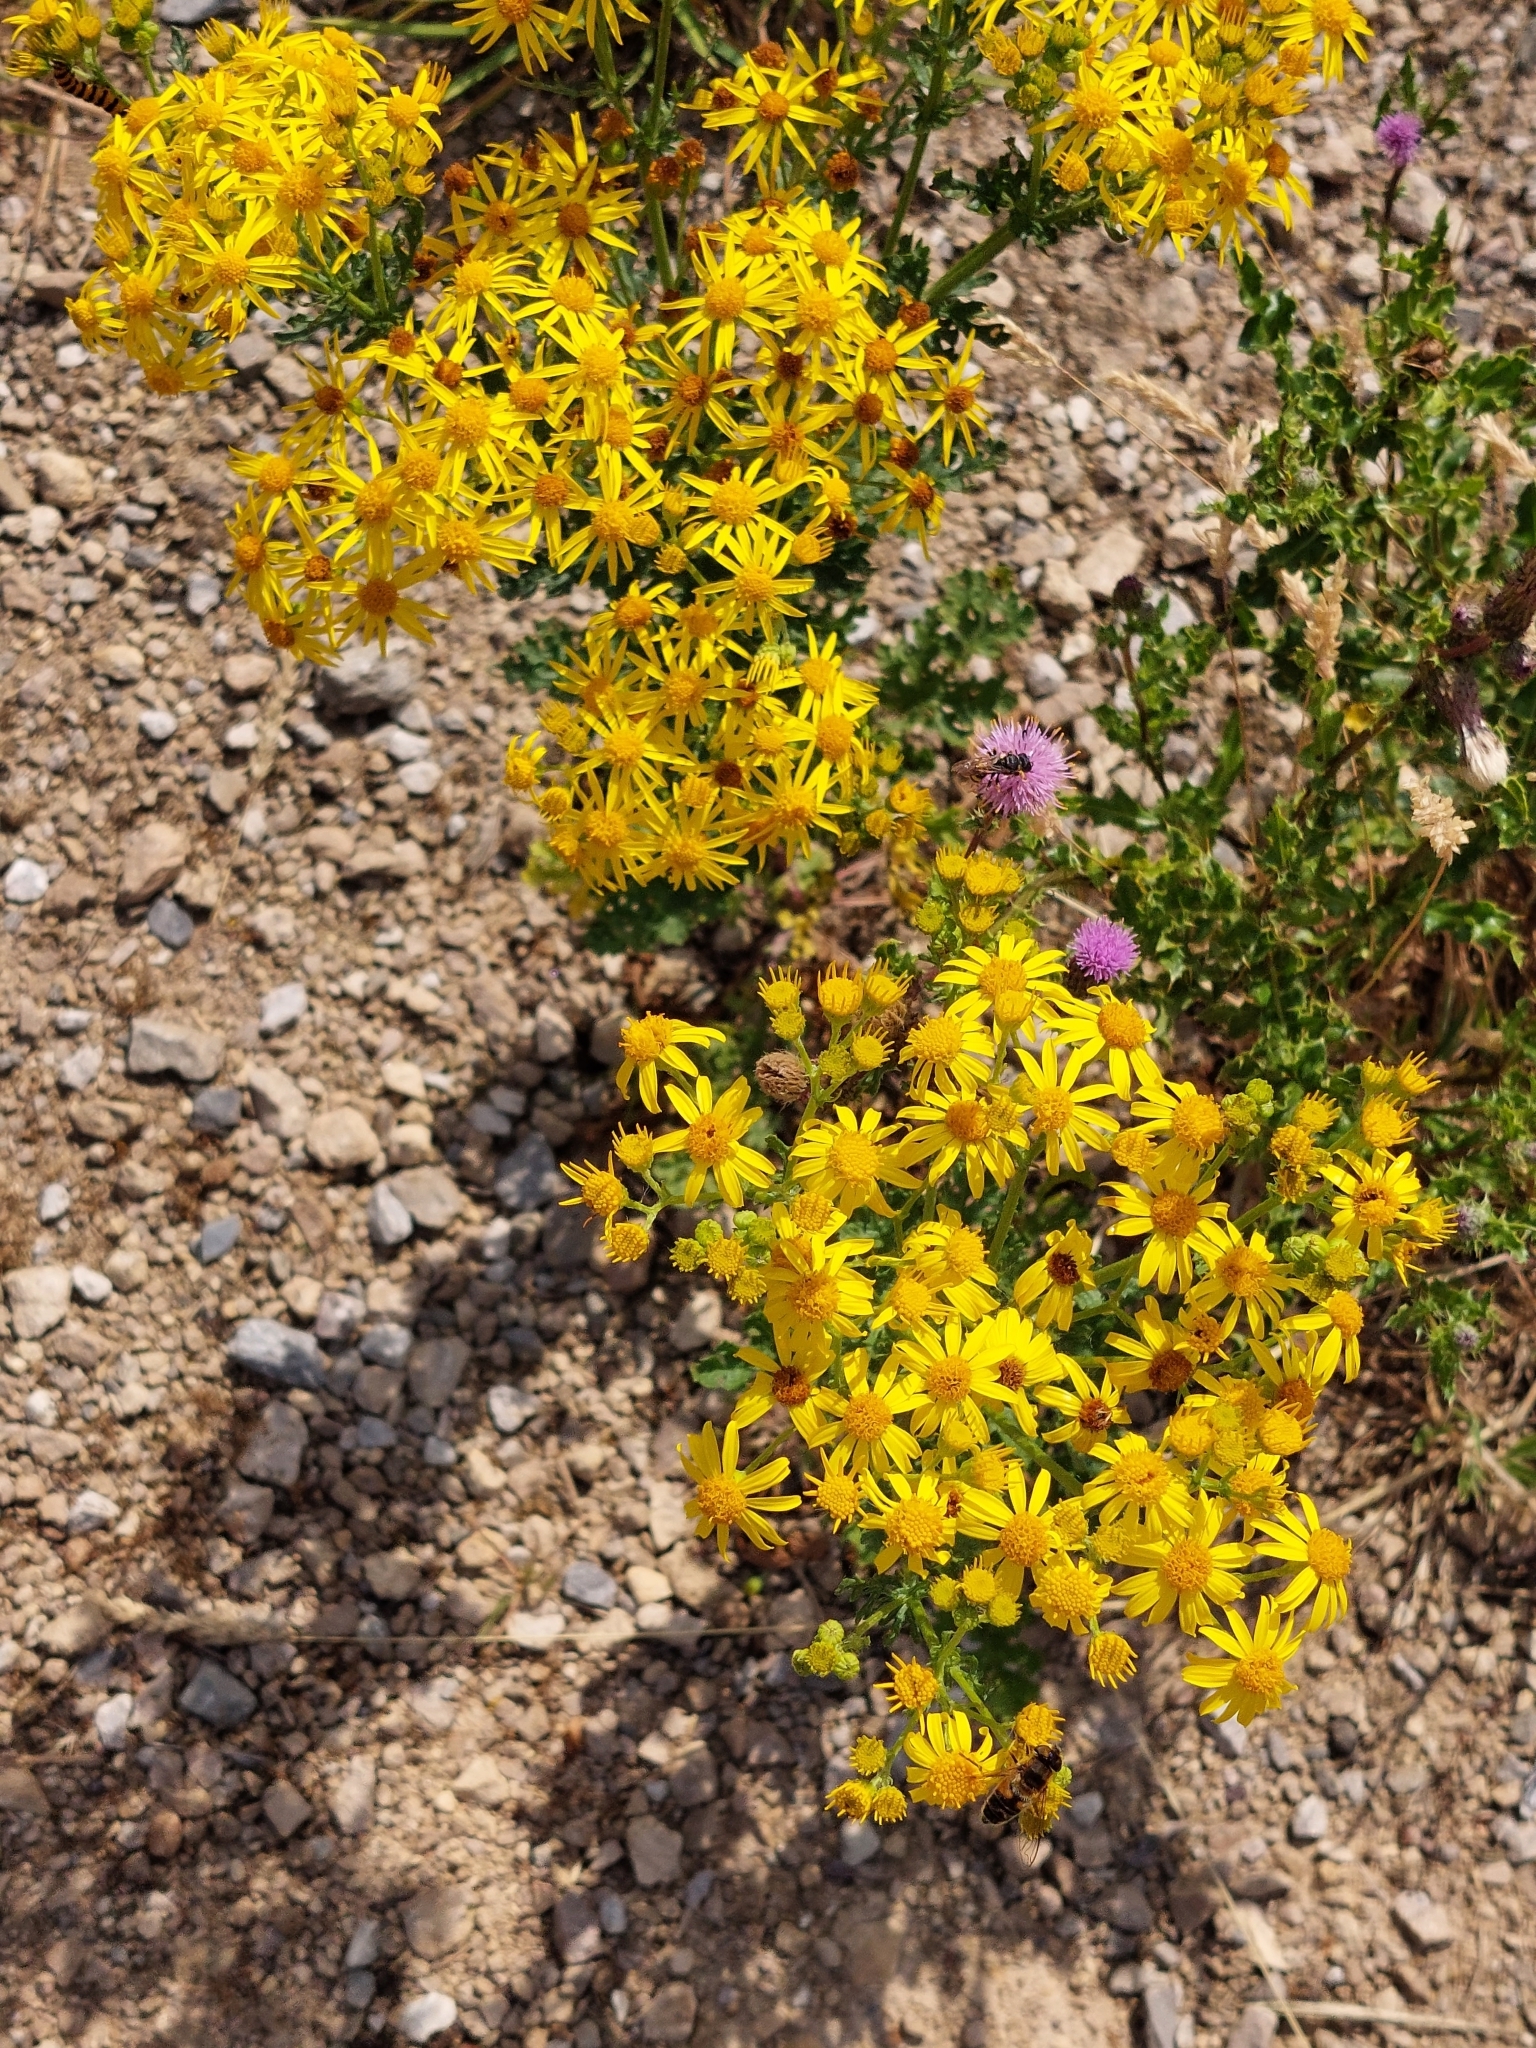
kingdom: Plantae
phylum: Tracheophyta
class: Magnoliopsida
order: Asterales
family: Asteraceae
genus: Jacobaea
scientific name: Jacobaea vulgaris
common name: Stinking willie
